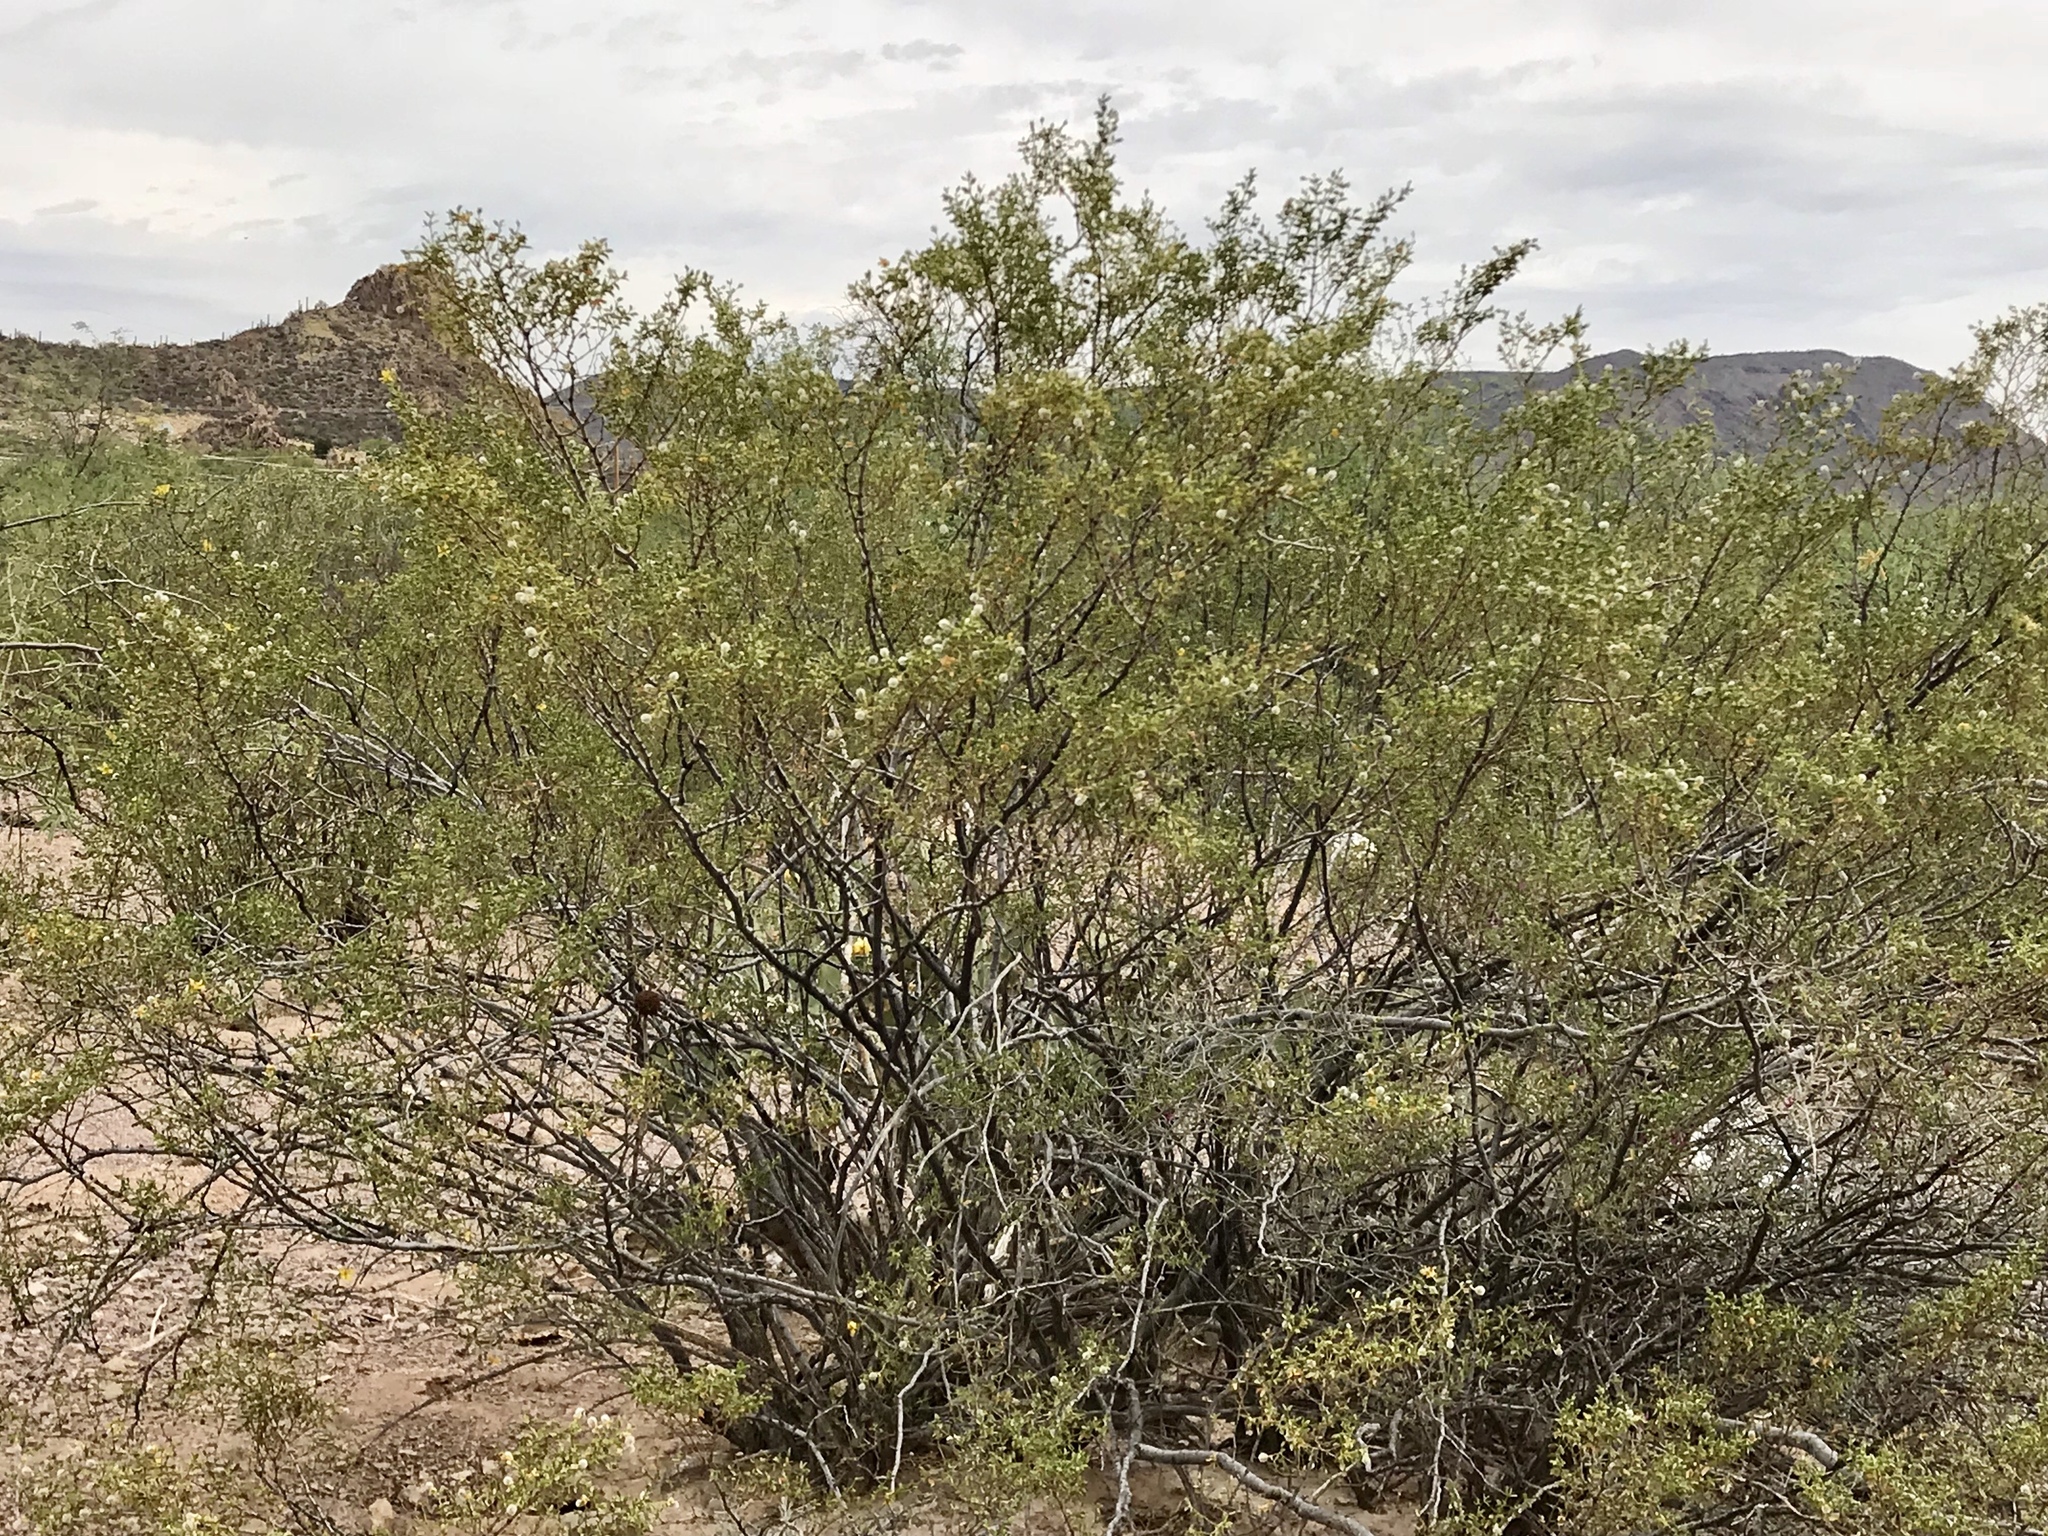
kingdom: Plantae
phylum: Tracheophyta
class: Magnoliopsida
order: Zygophyllales
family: Zygophyllaceae
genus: Larrea
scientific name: Larrea tridentata
